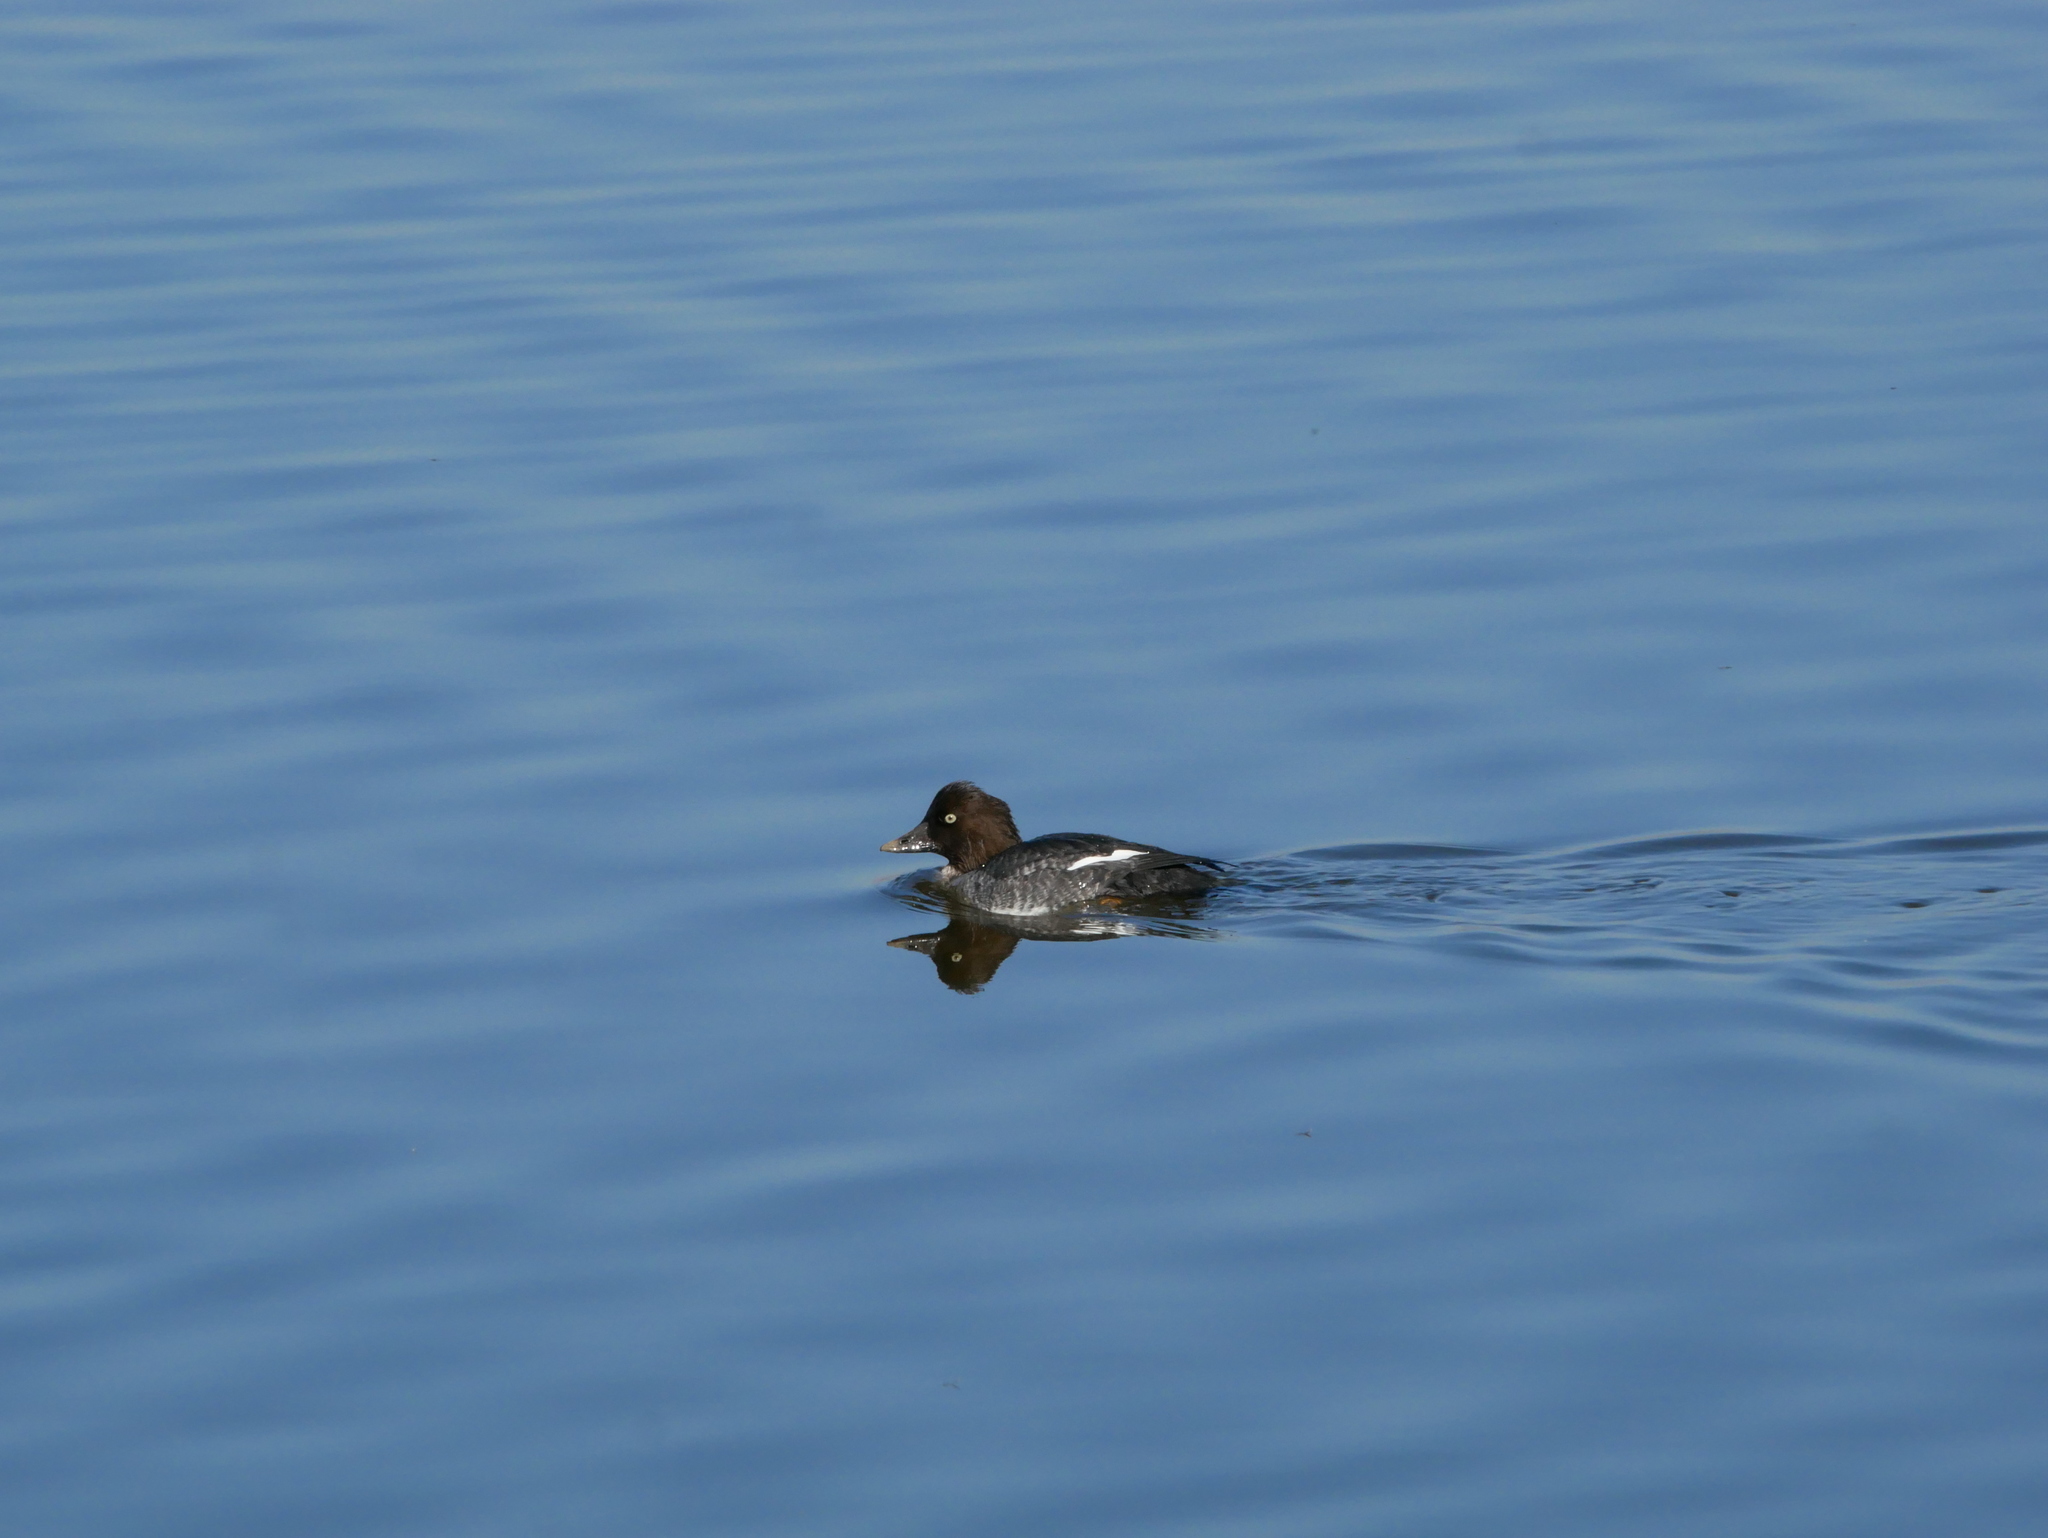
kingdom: Animalia
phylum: Chordata
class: Aves
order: Anseriformes
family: Anatidae
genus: Bucephala
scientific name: Bucephala clangula
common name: Common goldeneye
